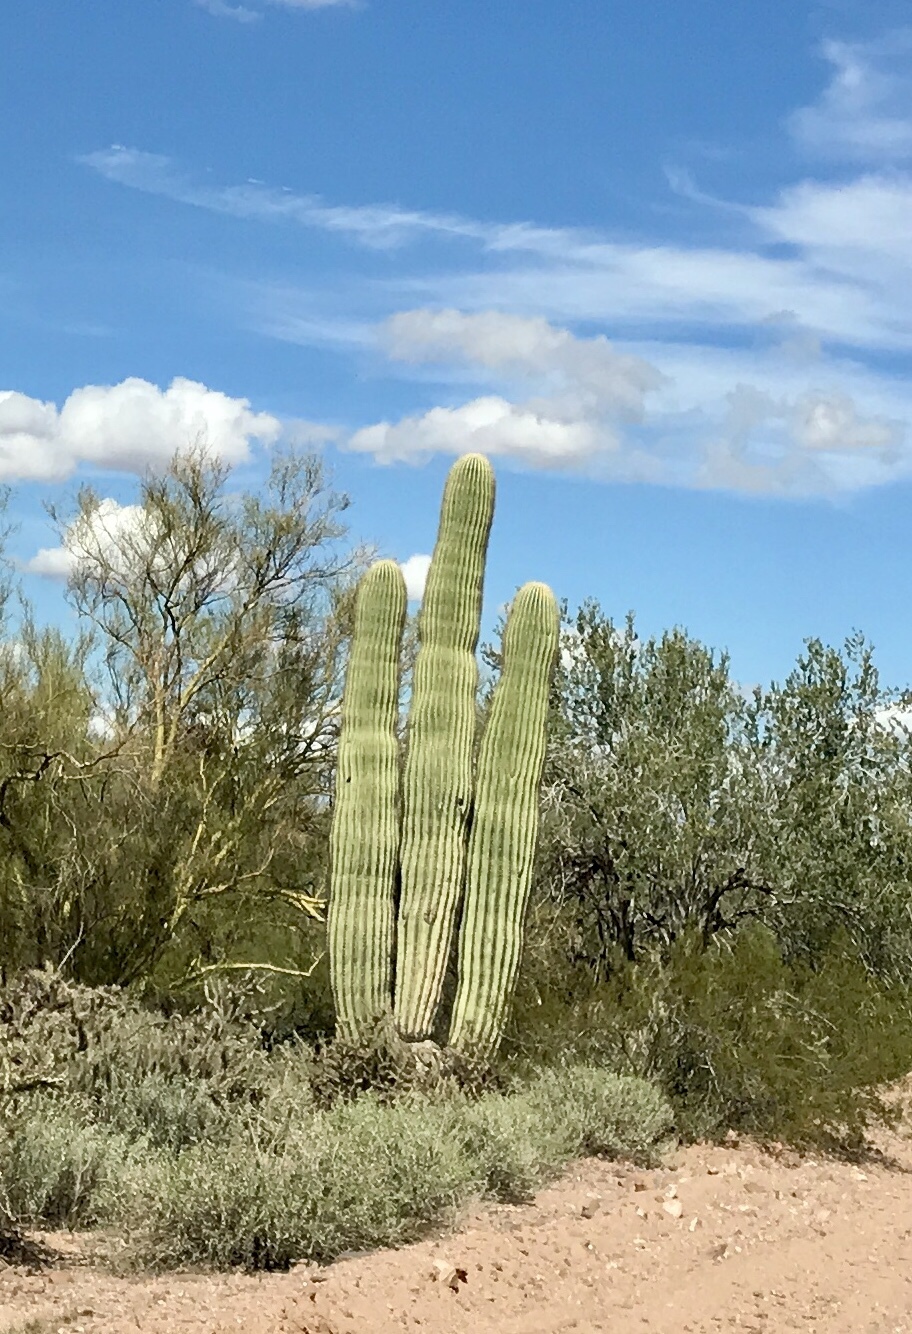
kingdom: Plantae
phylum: Tracheophyta
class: Magnoliopsida
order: Caryophyllales
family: Cactaceae
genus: Carnegiea
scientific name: Carnegiea gigantea
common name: Saguaro
